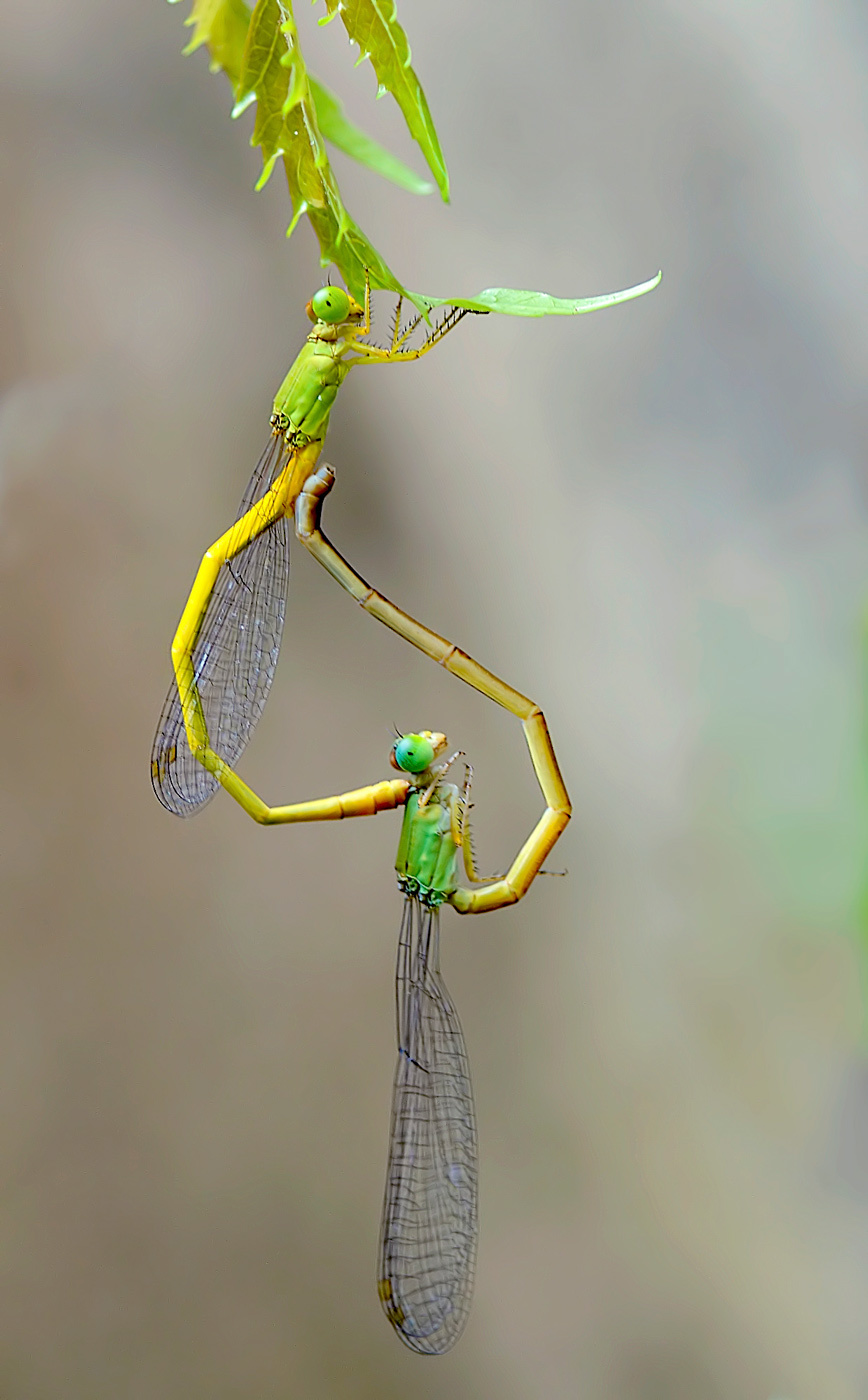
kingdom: Animalia
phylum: Arthropoda
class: Insecta
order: Odonata
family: Coenagrionidae
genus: Ceriagrion
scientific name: Ceriagrion coromandelianum
